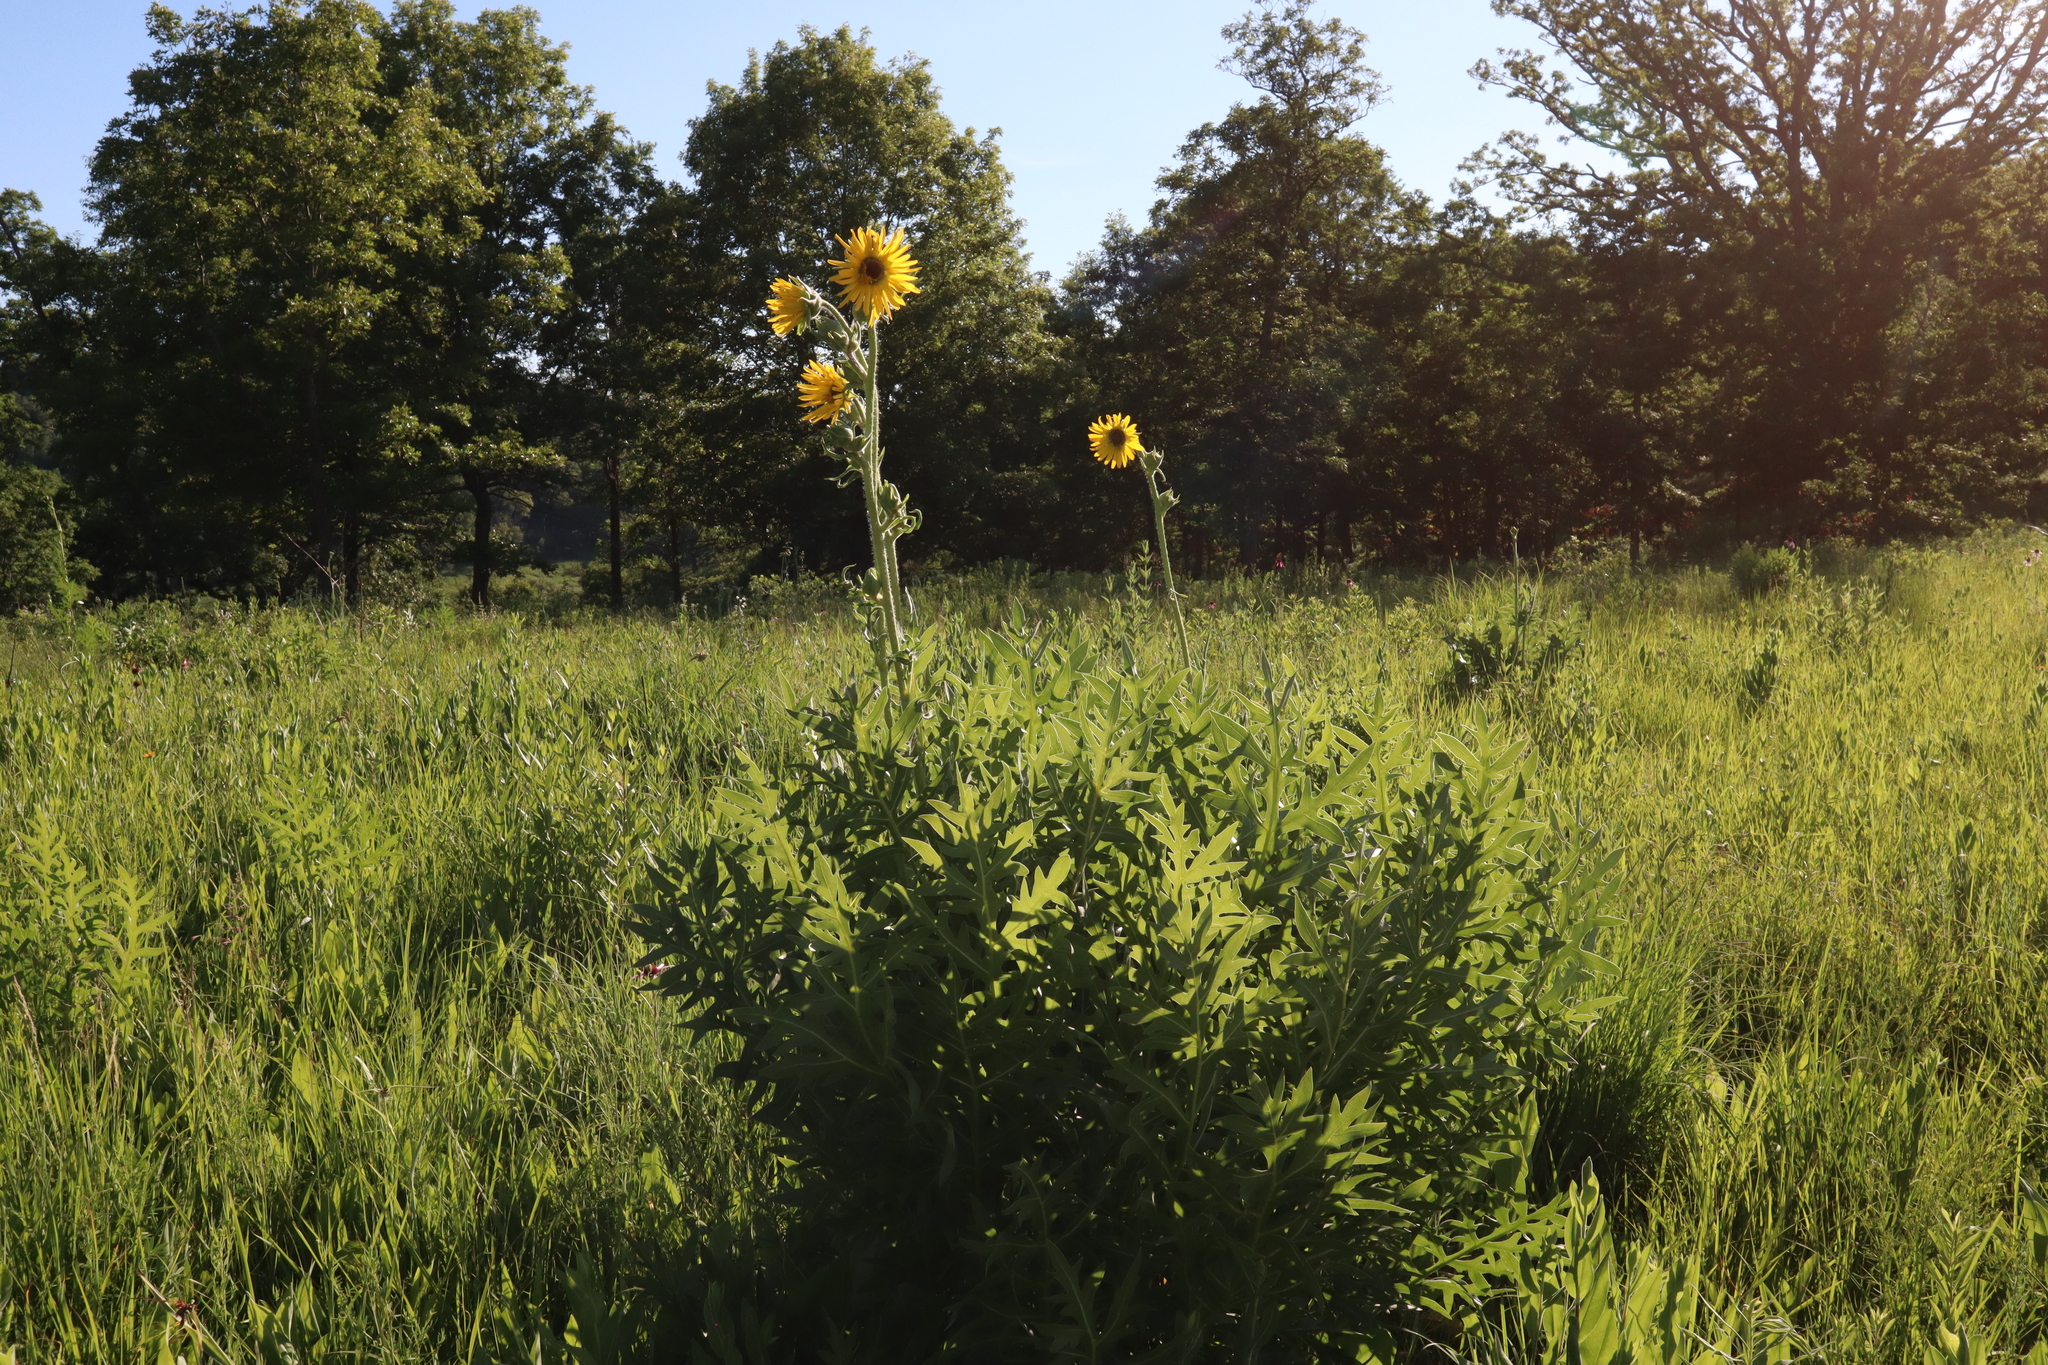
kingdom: Plantae
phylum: Tracheophyta
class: Magnoliopsida
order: Asterales
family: Asteraceae
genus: Silphium
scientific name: Silphium laciniatum
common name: Polarplant
